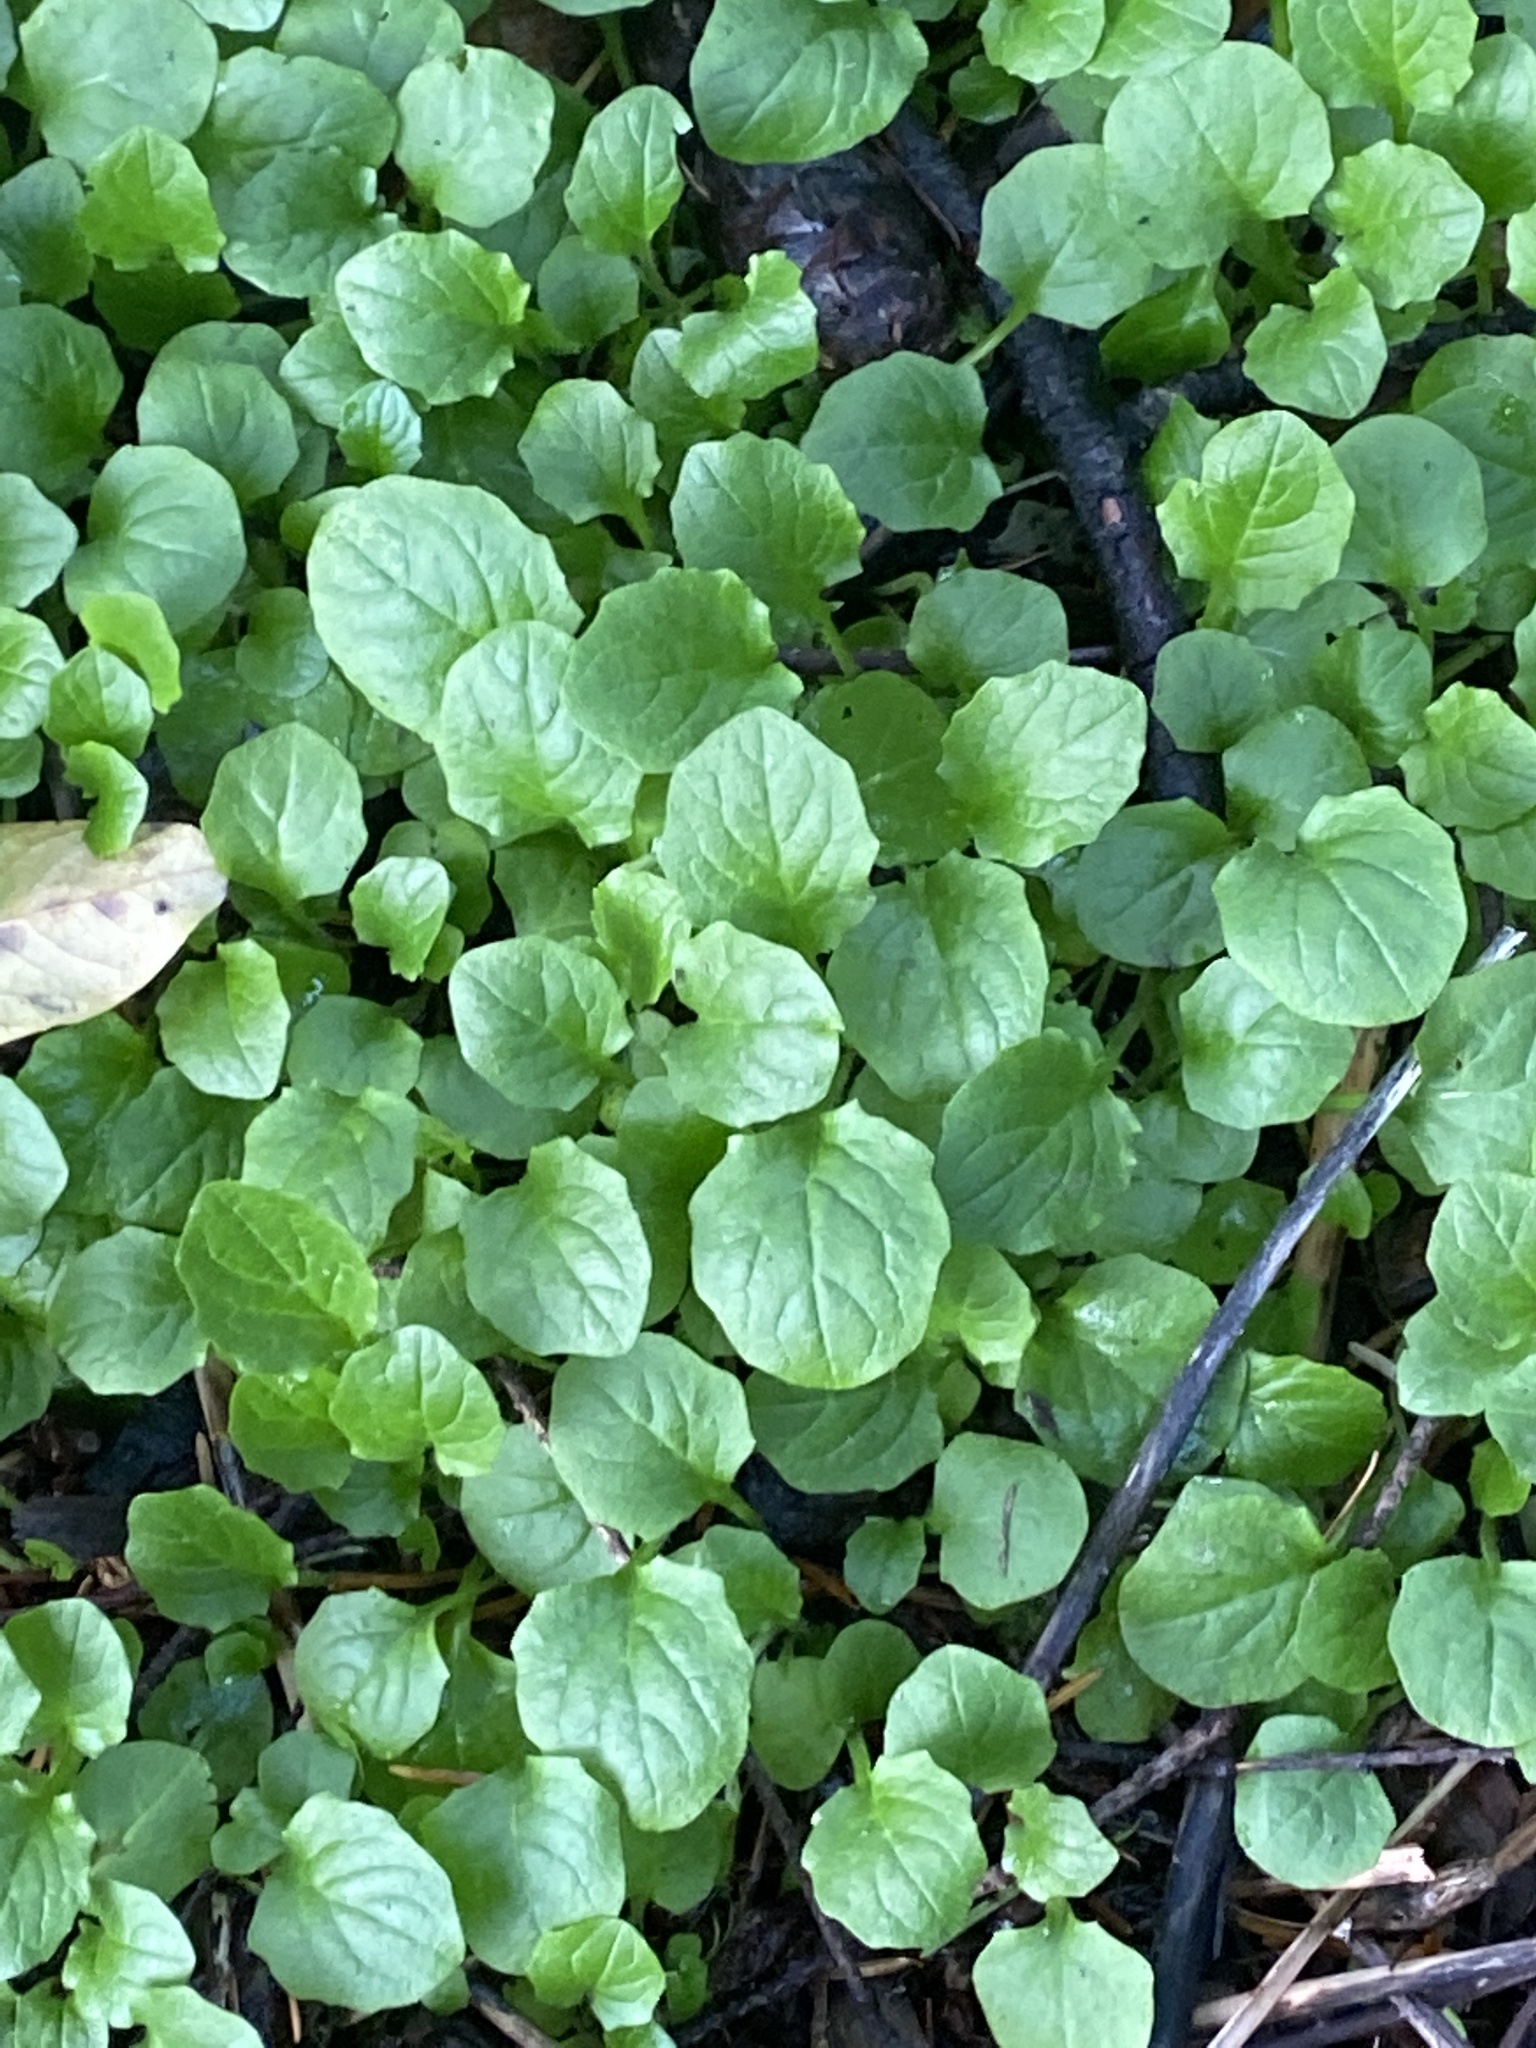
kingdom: Plantae
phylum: Tracheophyta
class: Magnoliopsida
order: Asterales
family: Asteraceae
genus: Lapsana
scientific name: Lapsana communis
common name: Nipplewort
